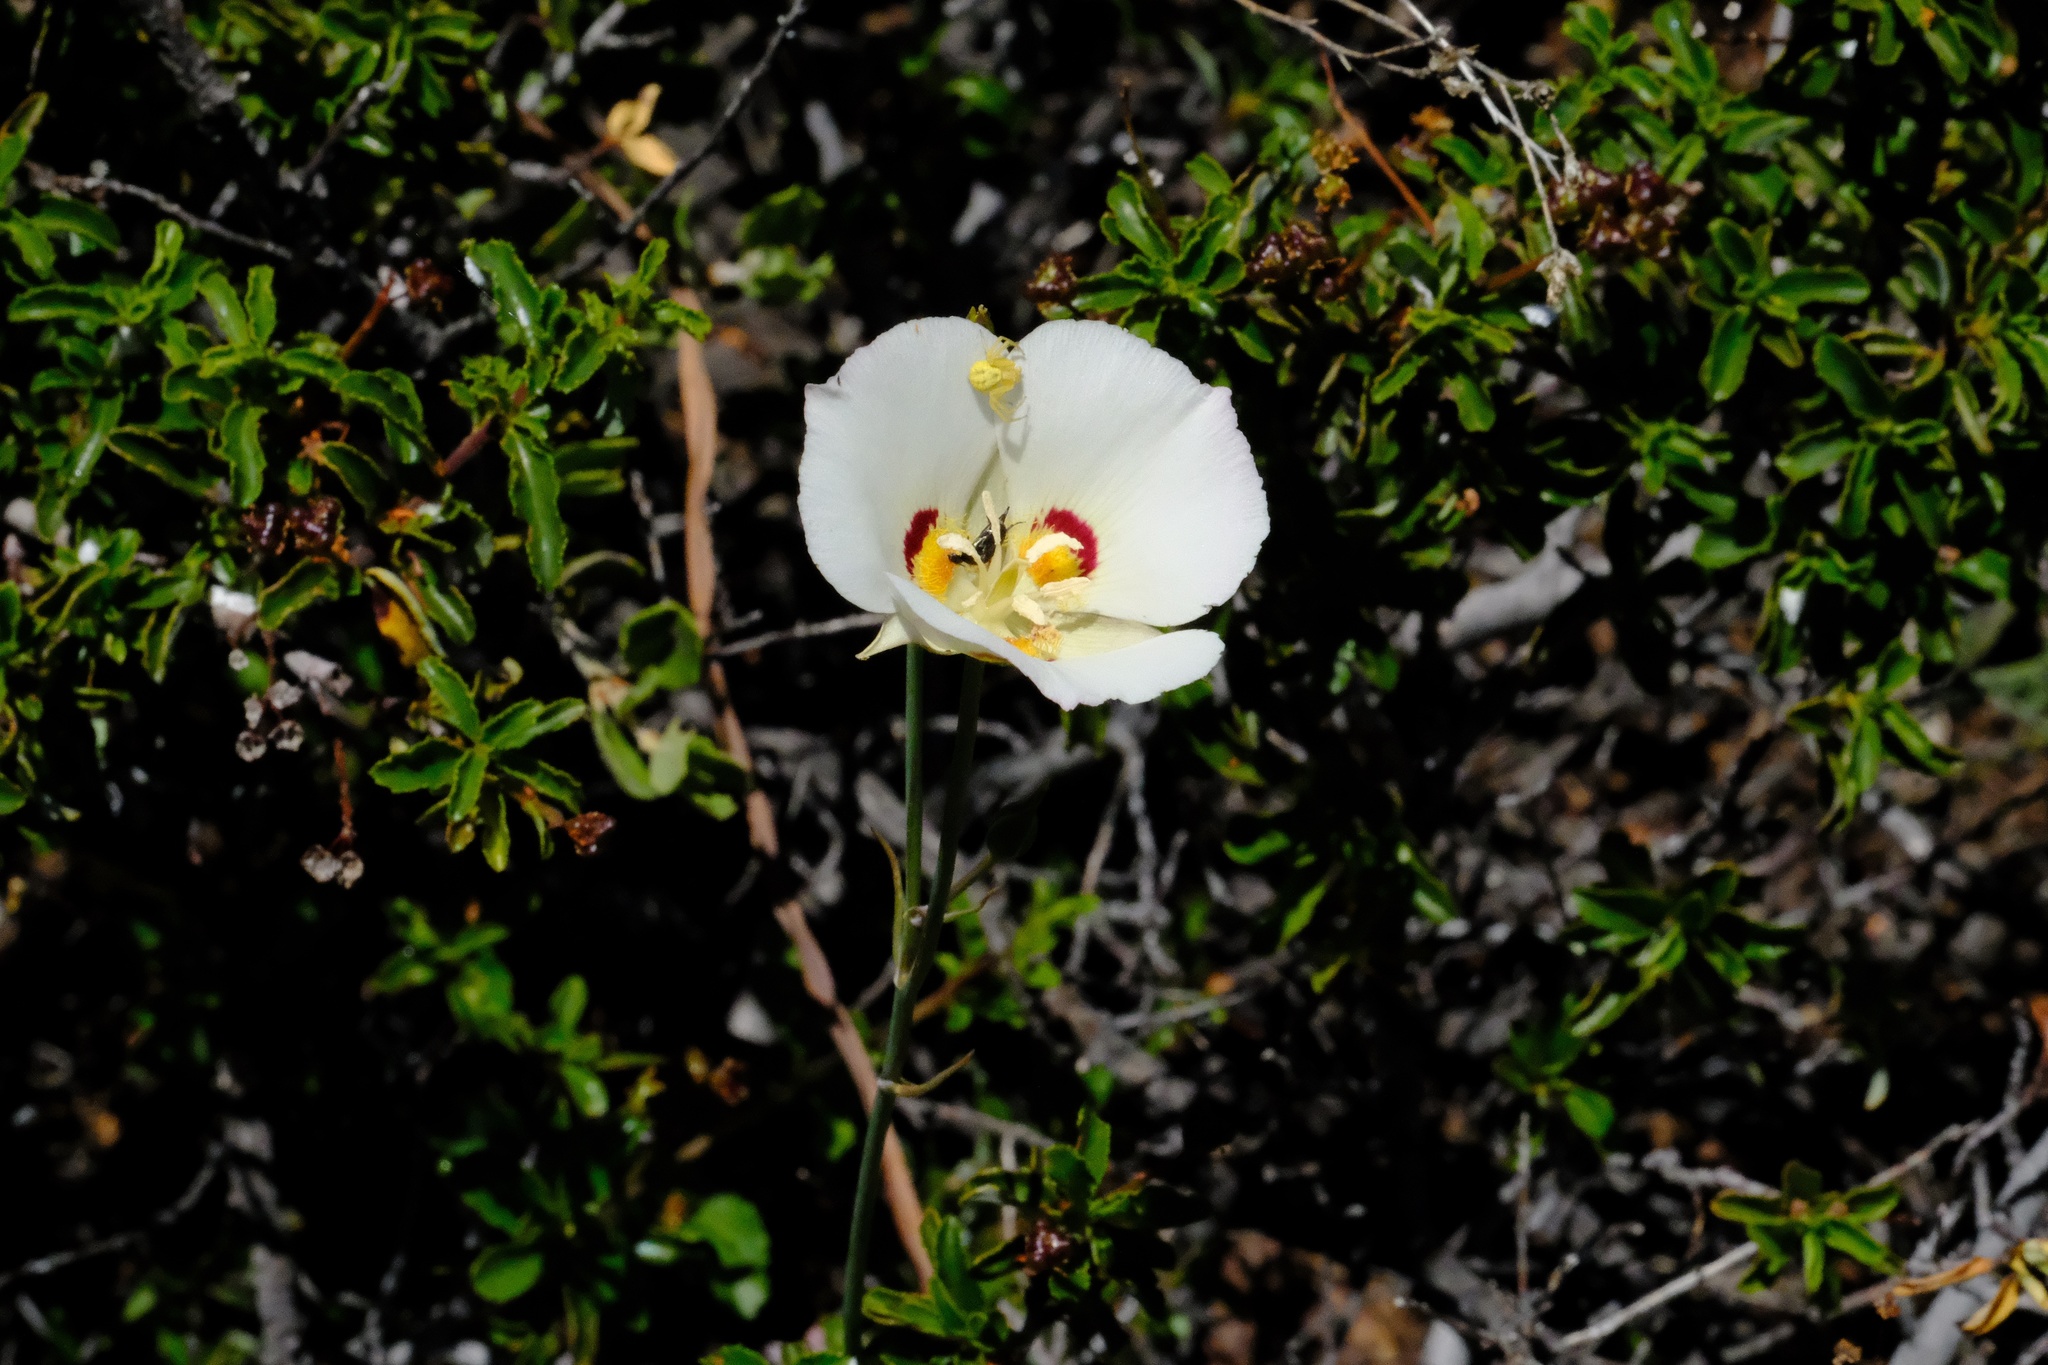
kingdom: Plantae
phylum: Tracheophyta
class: Liliopsida
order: Liliales
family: Liliaceae
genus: Calochortus
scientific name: Calochortus dunnii
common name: Dunn's mariposa-lily
